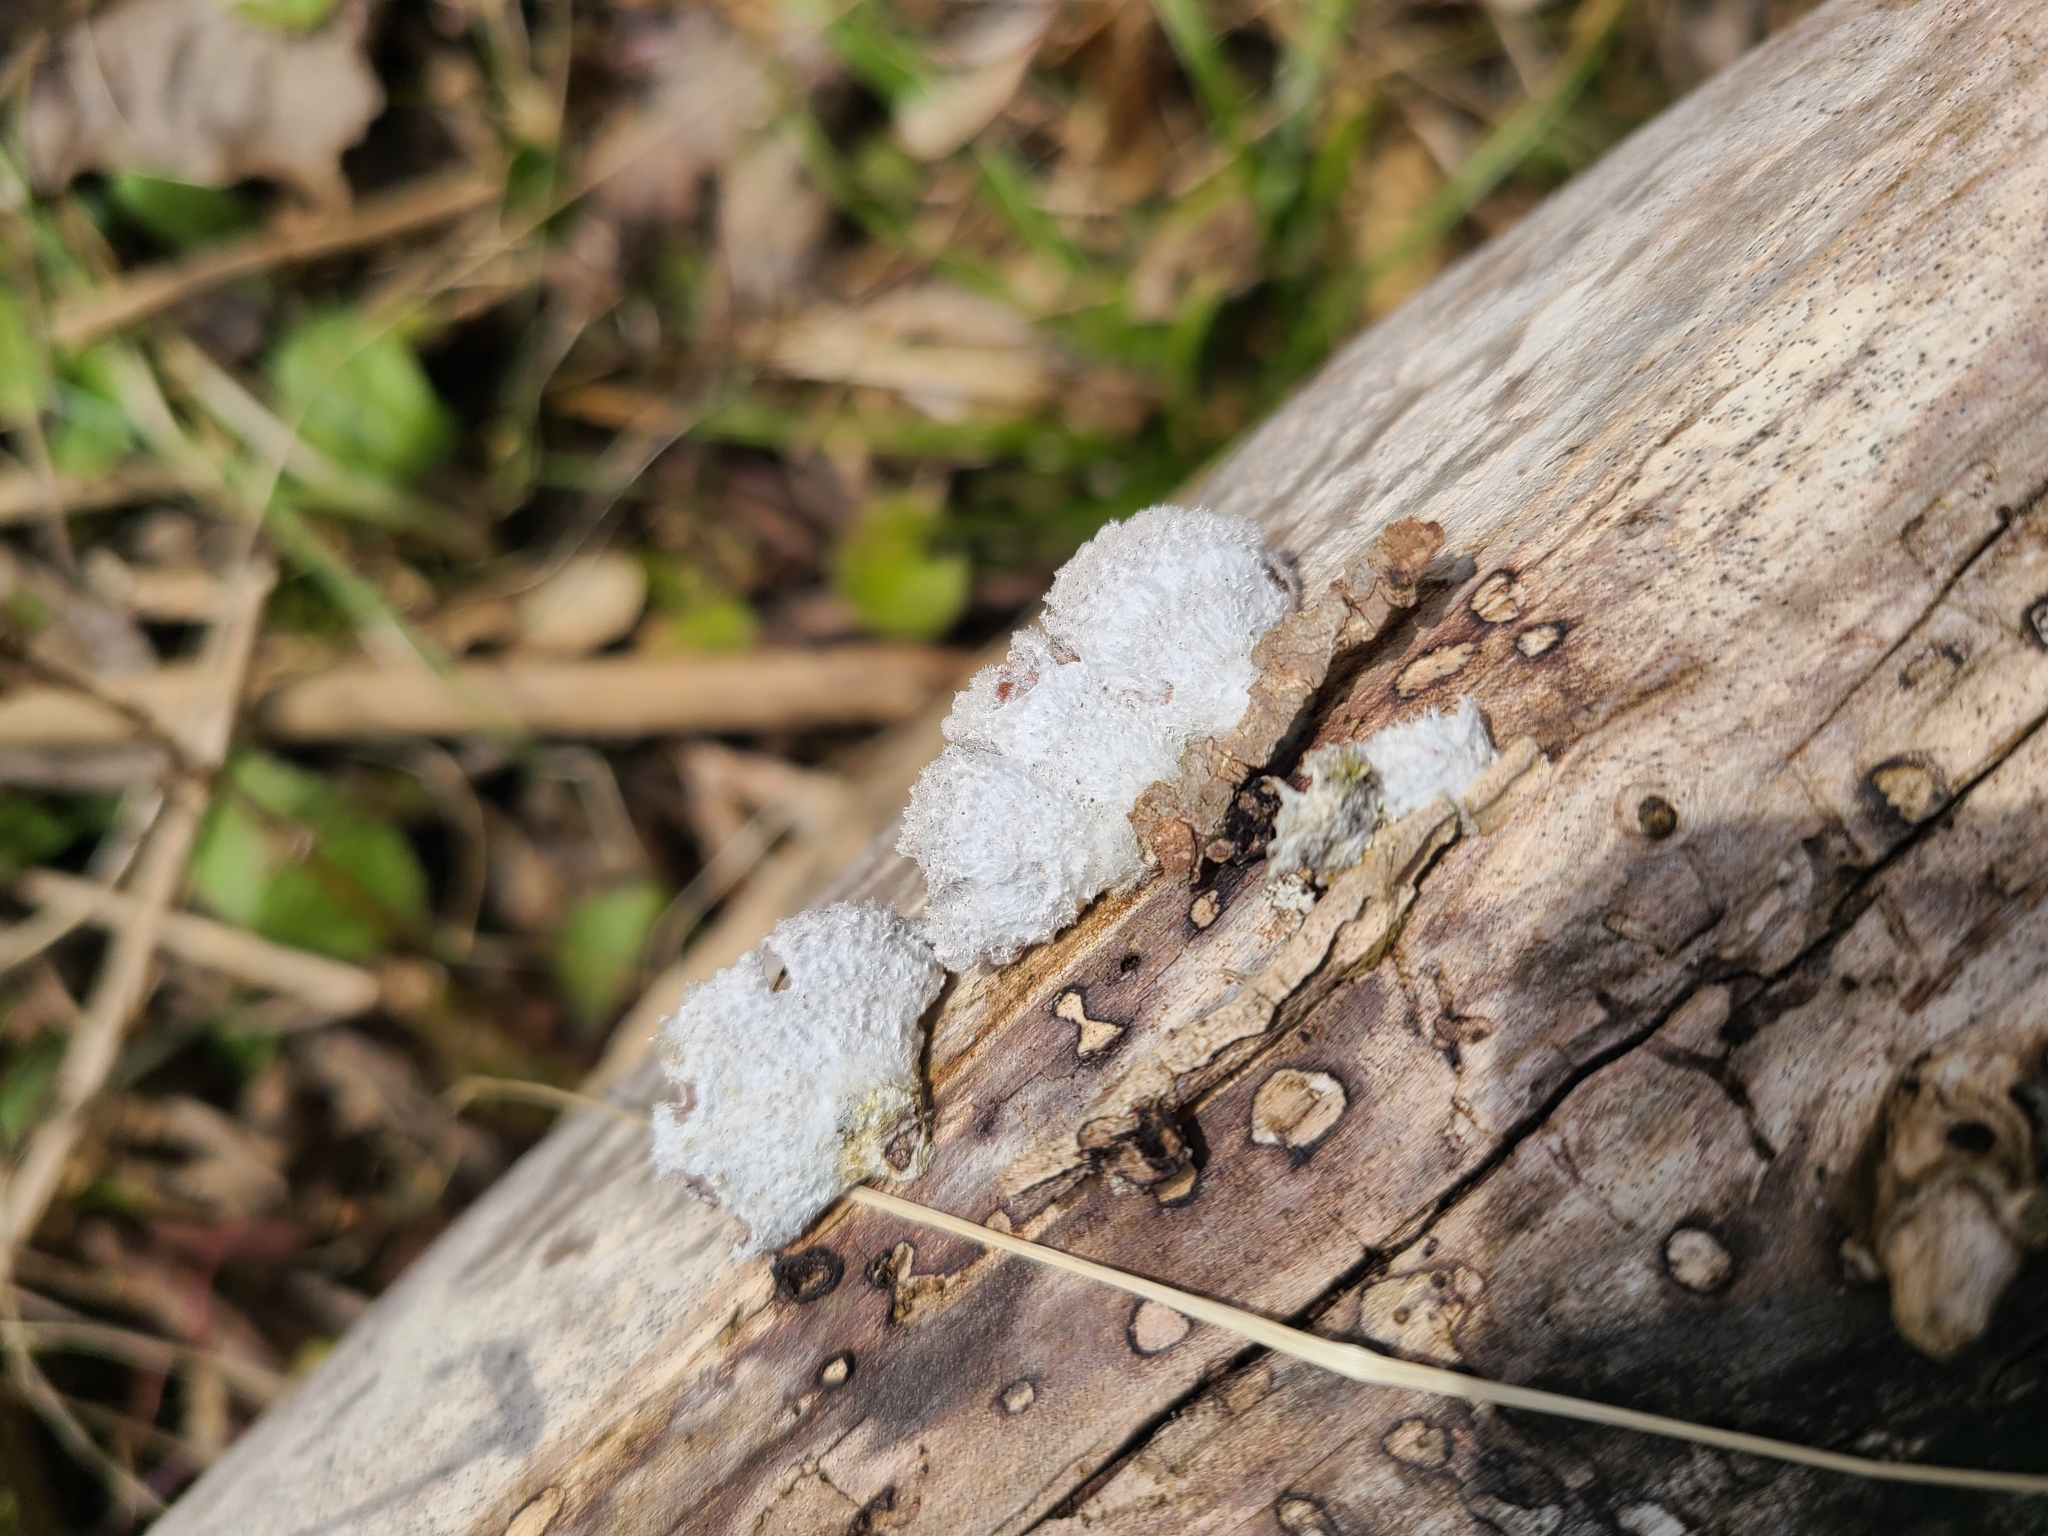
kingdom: Fungi
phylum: Basidiomycota
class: Agaricomycetes
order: Agaricales
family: Schizophyllaceae
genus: Schizophyllum
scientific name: Schizophyllum commune
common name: Common porecrust
